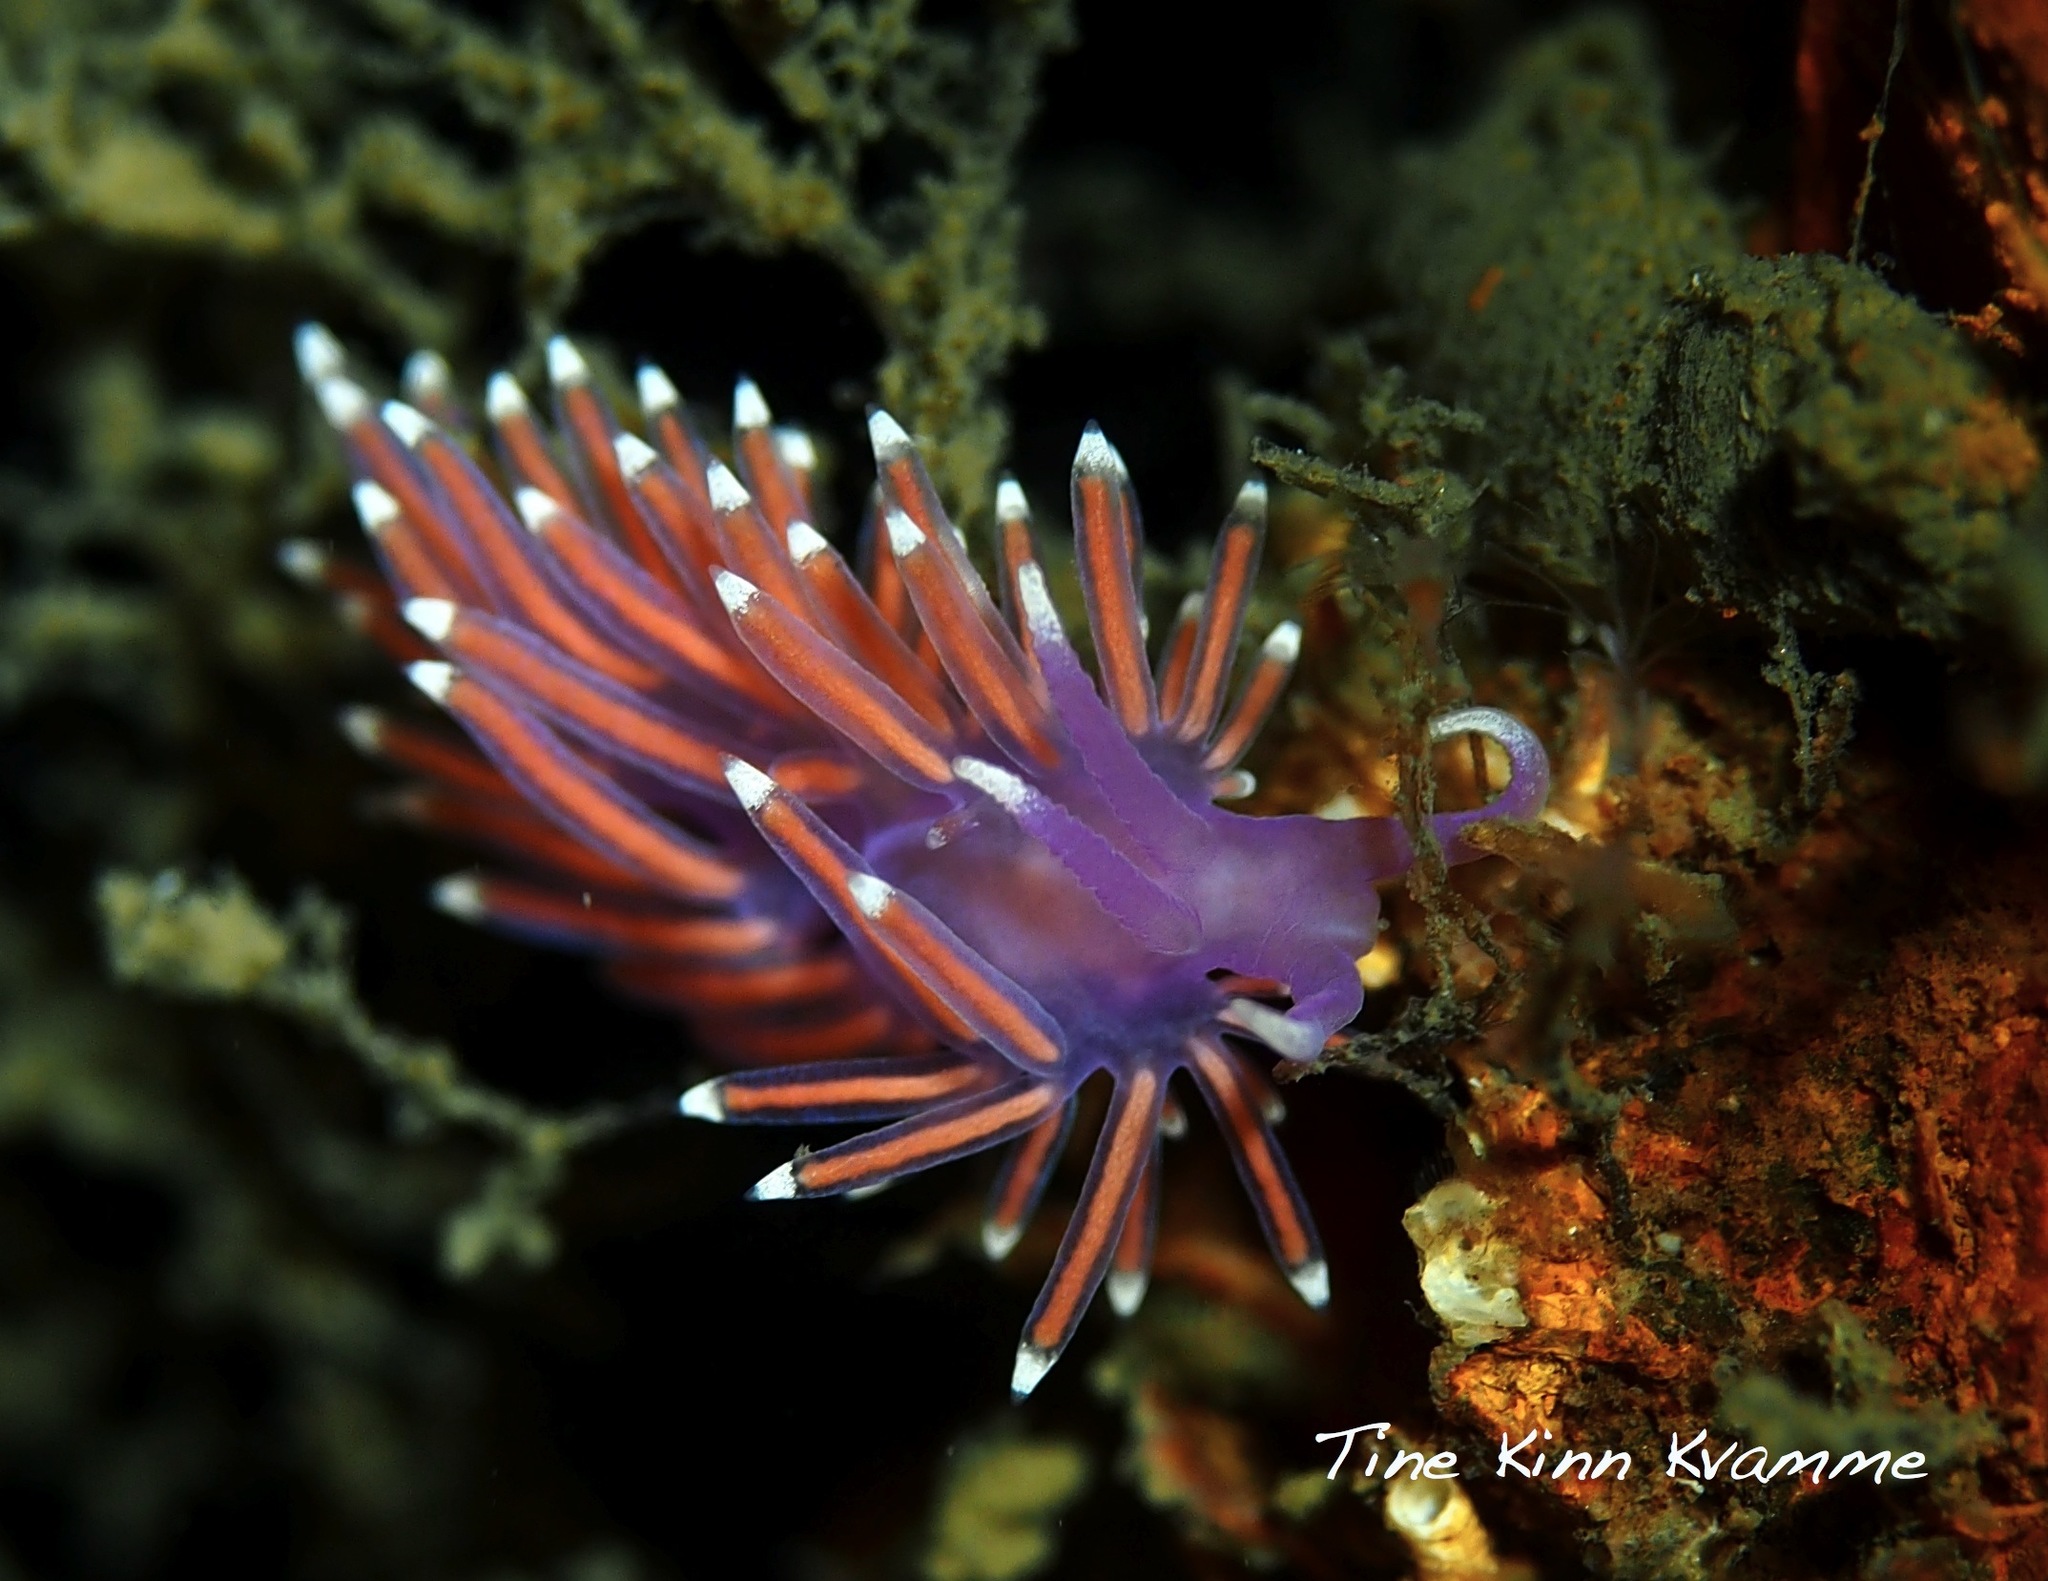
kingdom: Animalia
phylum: Mollusca
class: Gastropoda
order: Nudibranchia
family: Flabellinidae
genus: Edmundsella
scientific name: Edmundsella pedata
